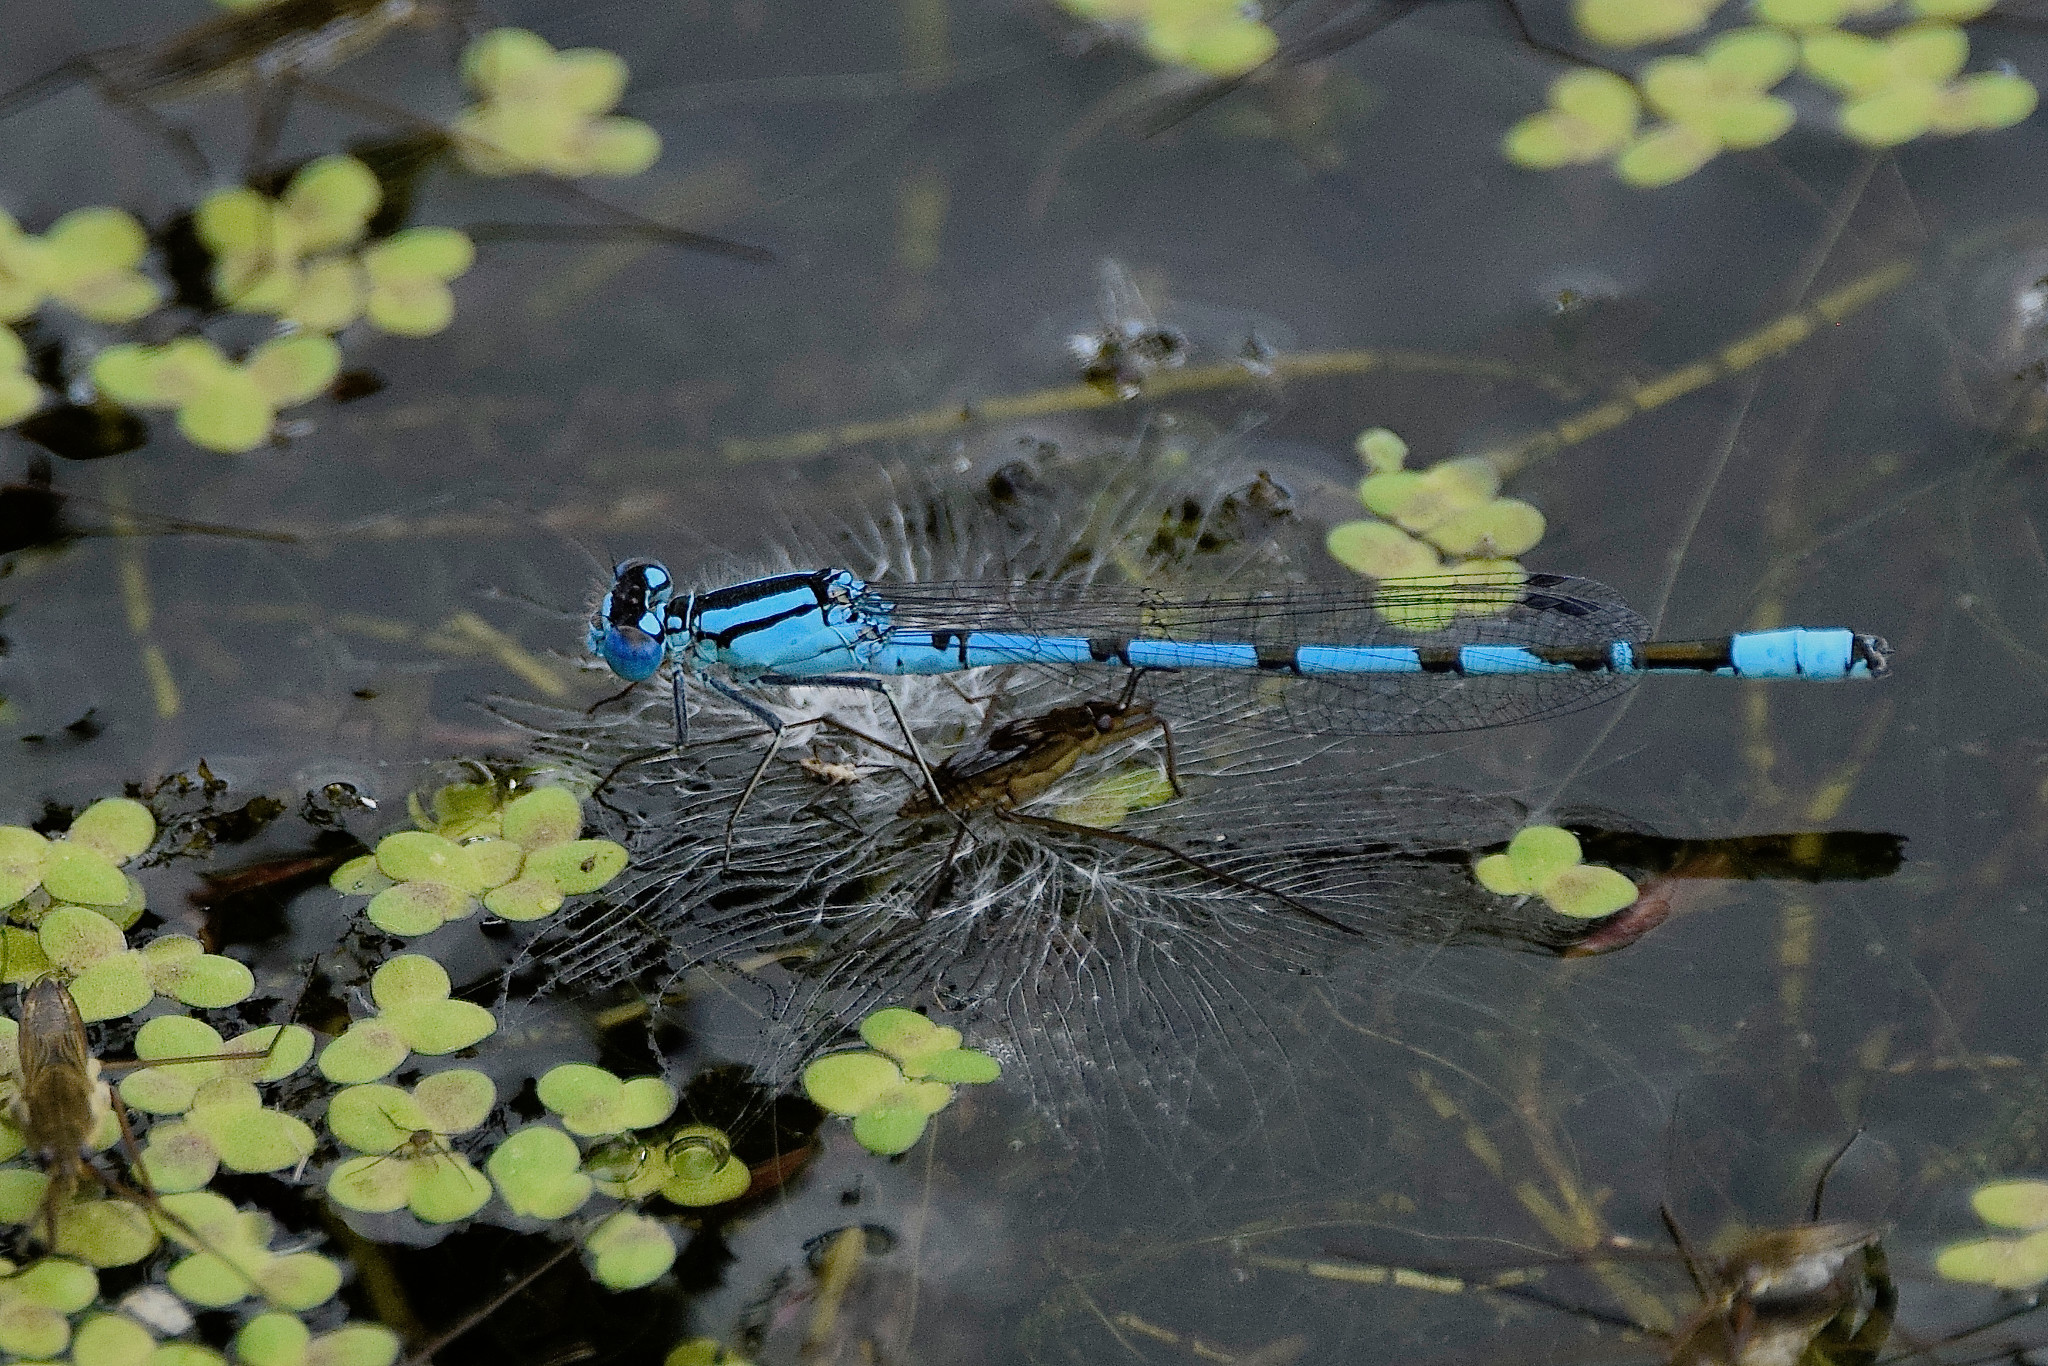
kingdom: Animalia
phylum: Arthropoda
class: Insecta
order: Odonata
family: Coenagrionidae
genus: Enallagma
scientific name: Enallagma cyathigerum
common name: Common blue damselfly
